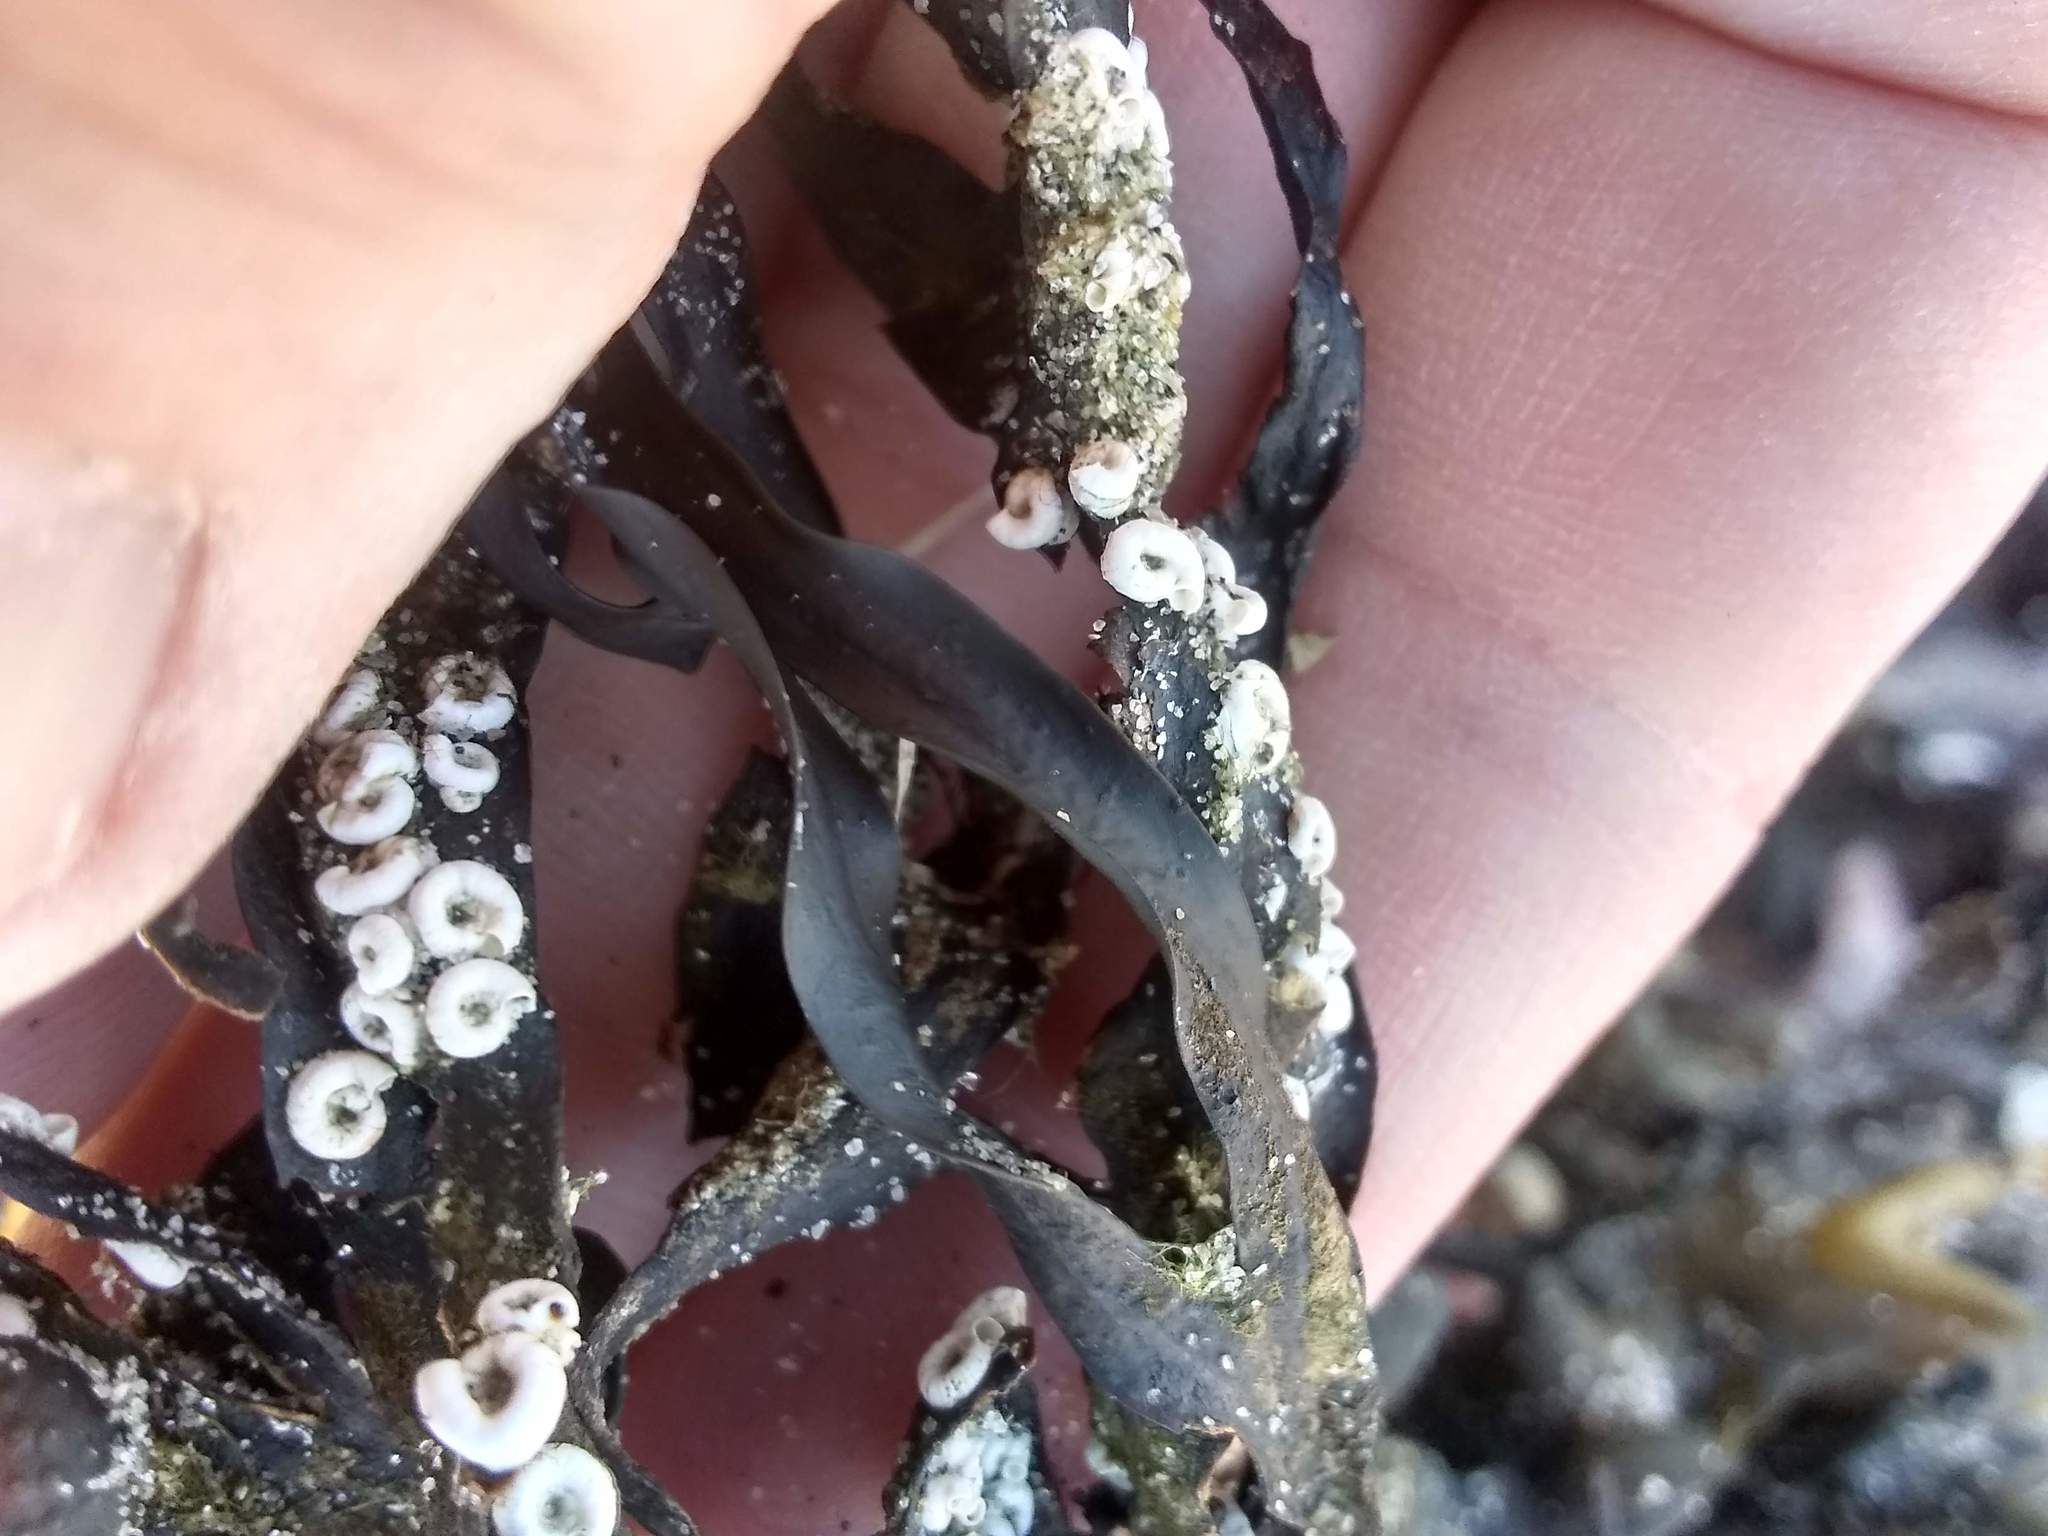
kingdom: Animalia
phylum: Annelida
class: Polychaeta
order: Sabellida
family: Serpulidae
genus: Circeis
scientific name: Circeis spirillum
